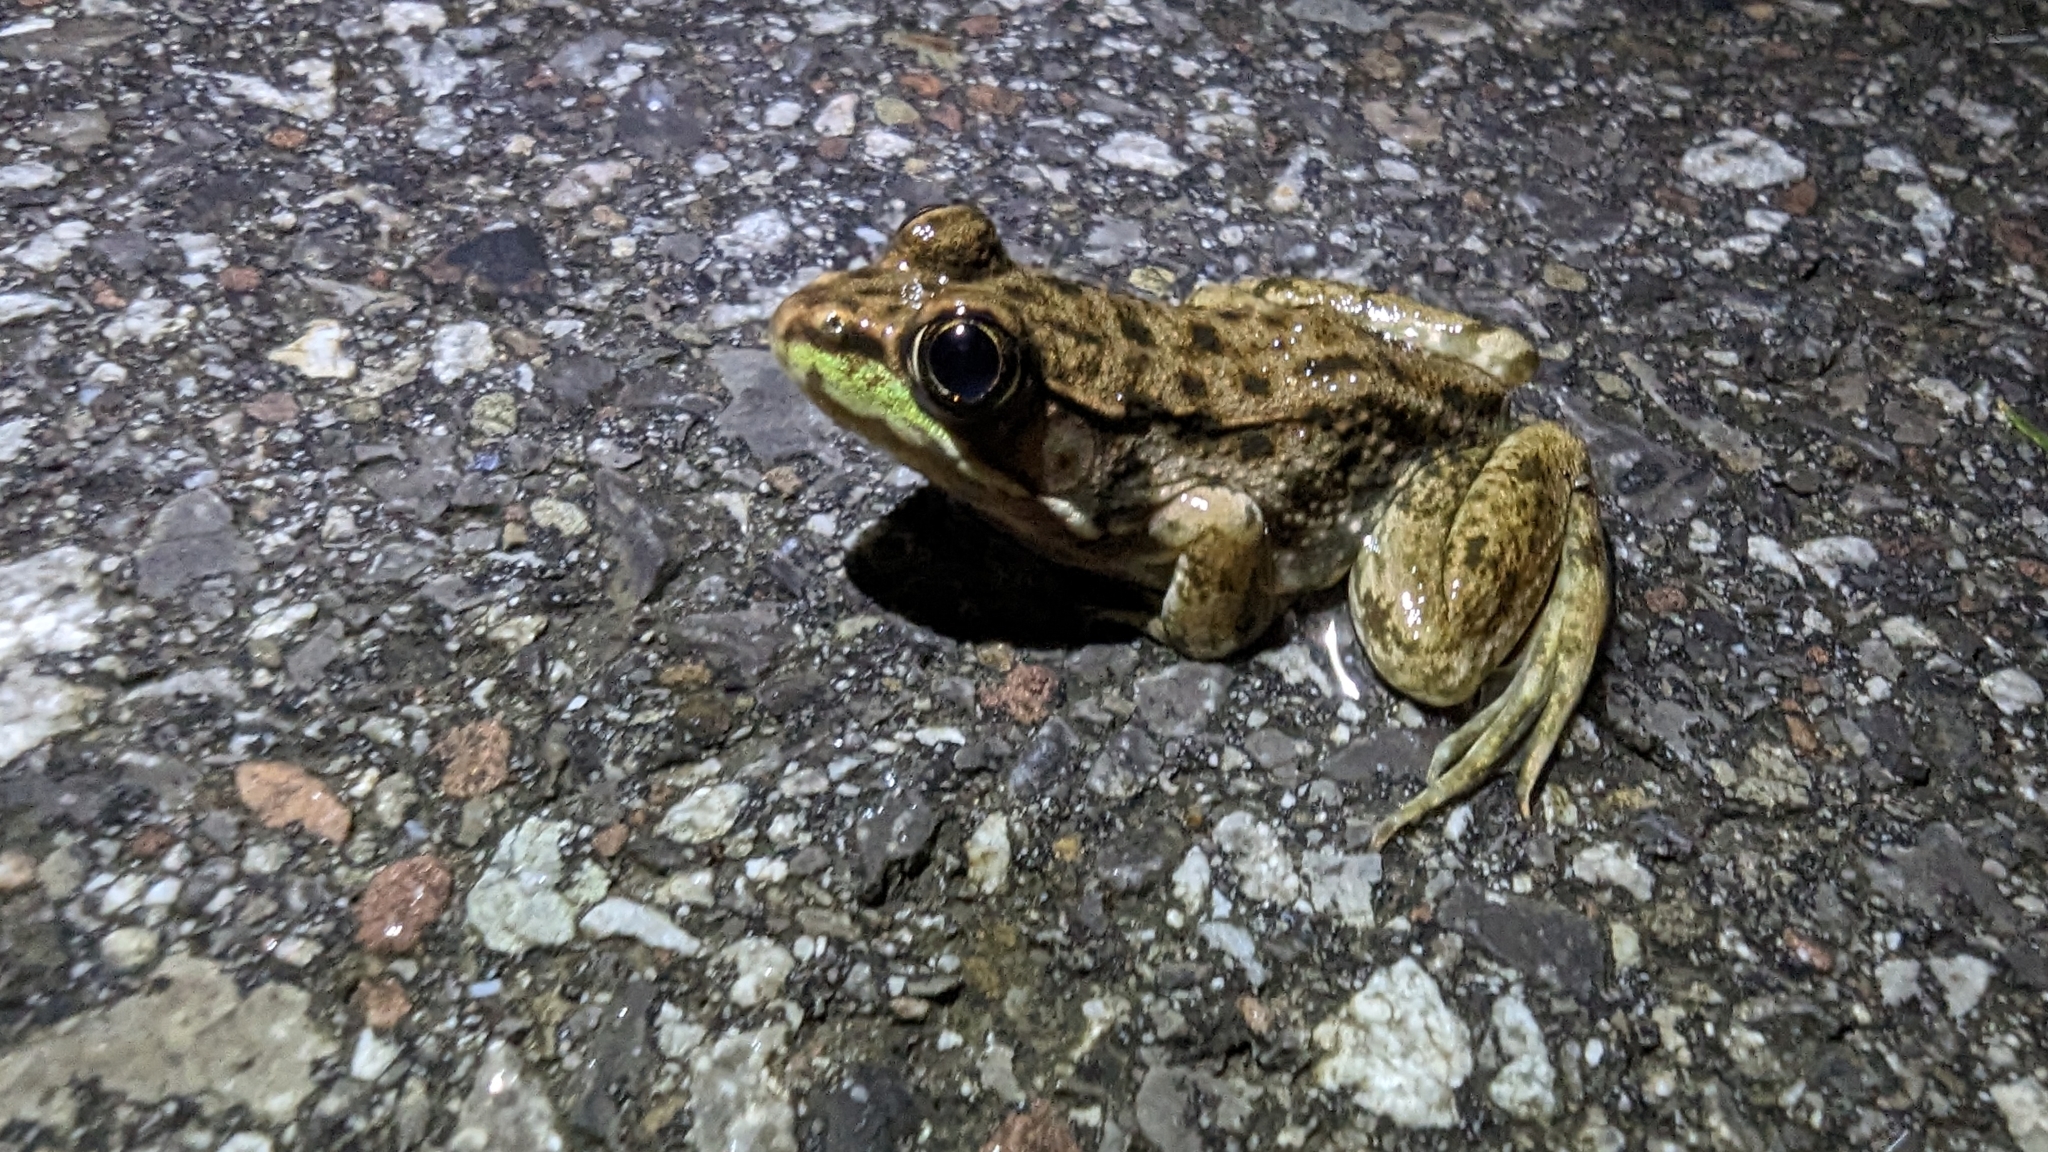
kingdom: Animalia
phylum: Chordata
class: Amphibia
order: Anura
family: Ranidae
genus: Lithobates
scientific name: Lithobates clamitans
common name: Green frog
